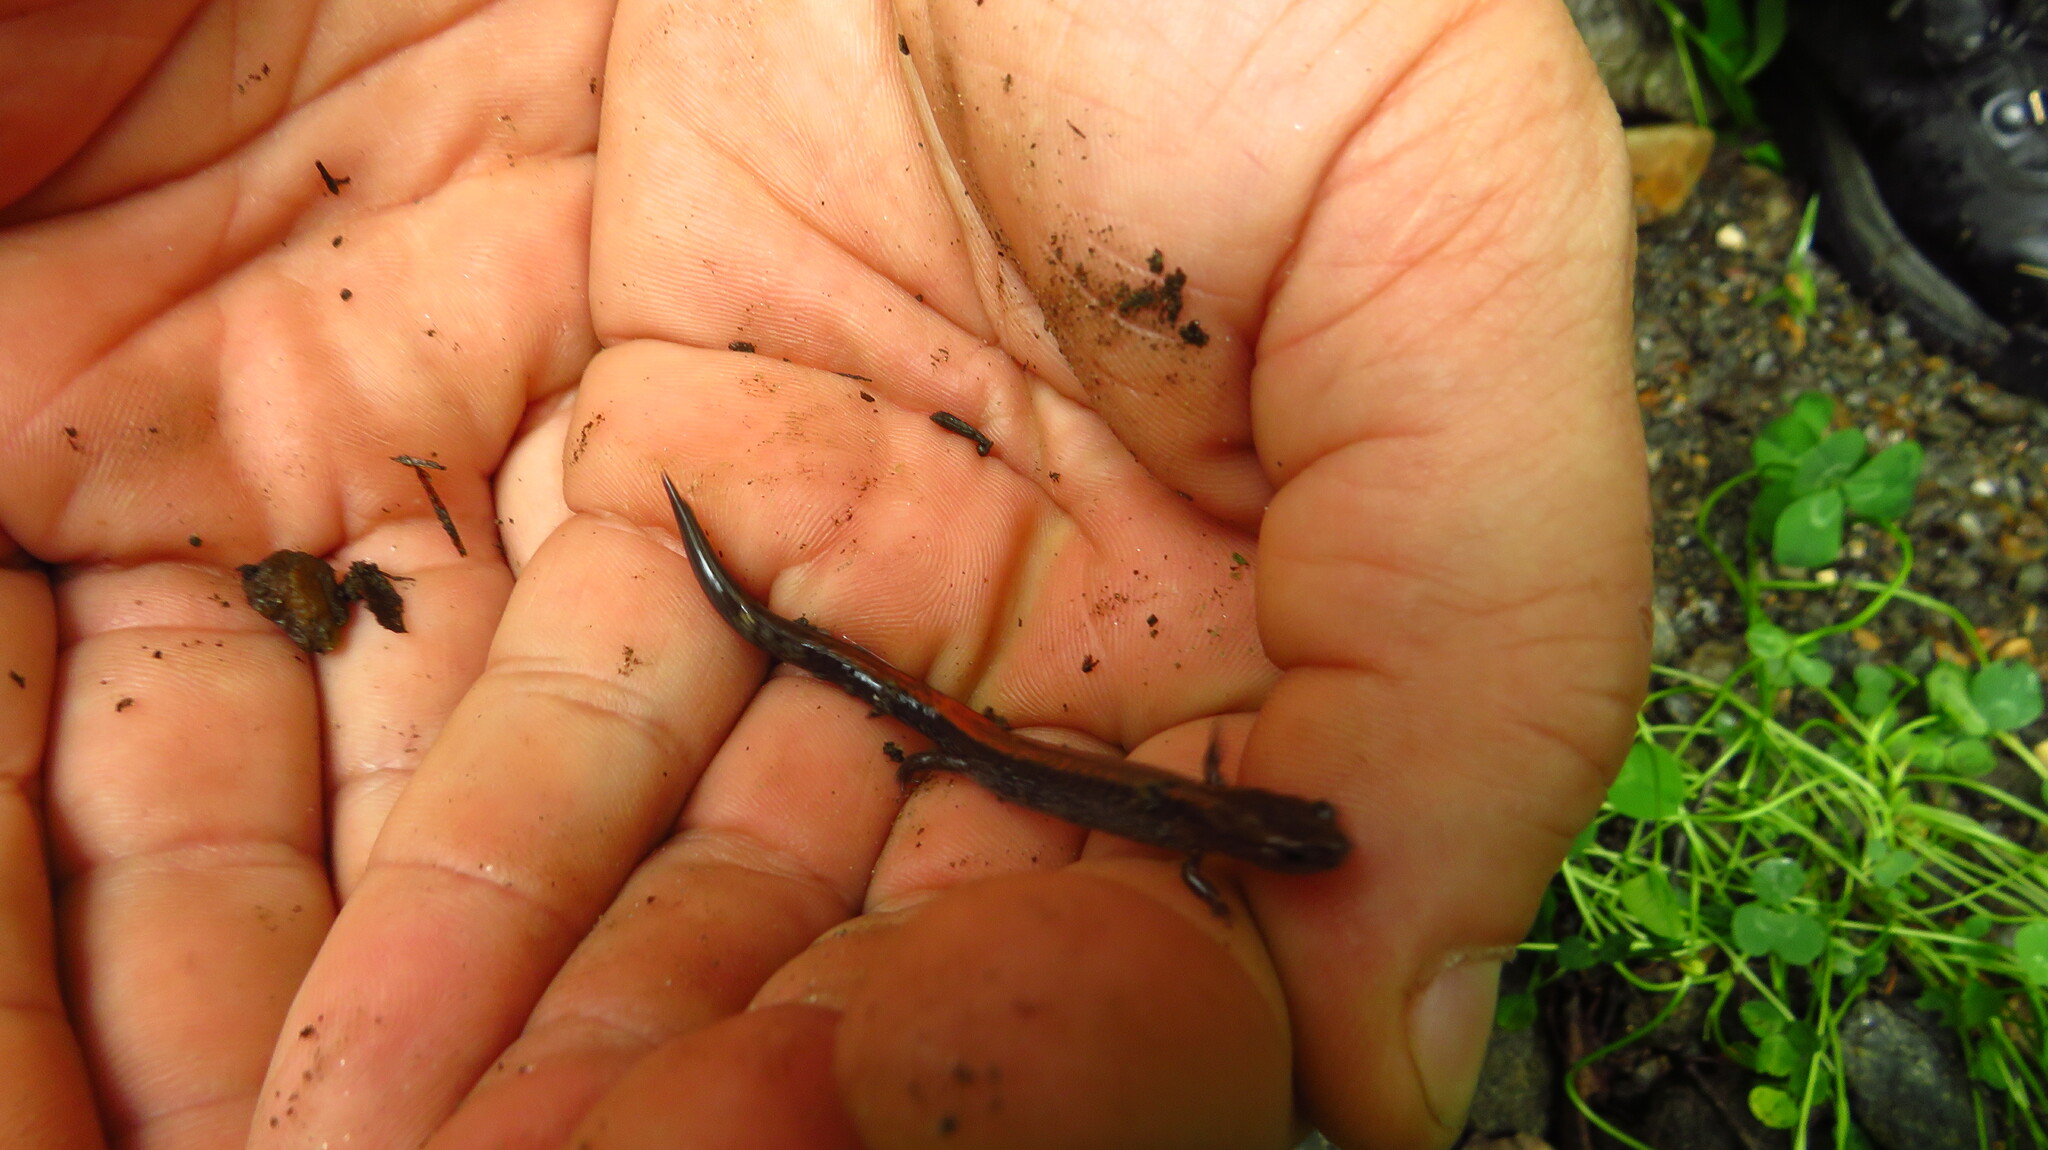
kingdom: Animalia
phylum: Chordata
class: Amphibia
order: Caudata
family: Plethodontidae
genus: Plethodon
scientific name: Plethodon cinereus
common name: Redback salamander
